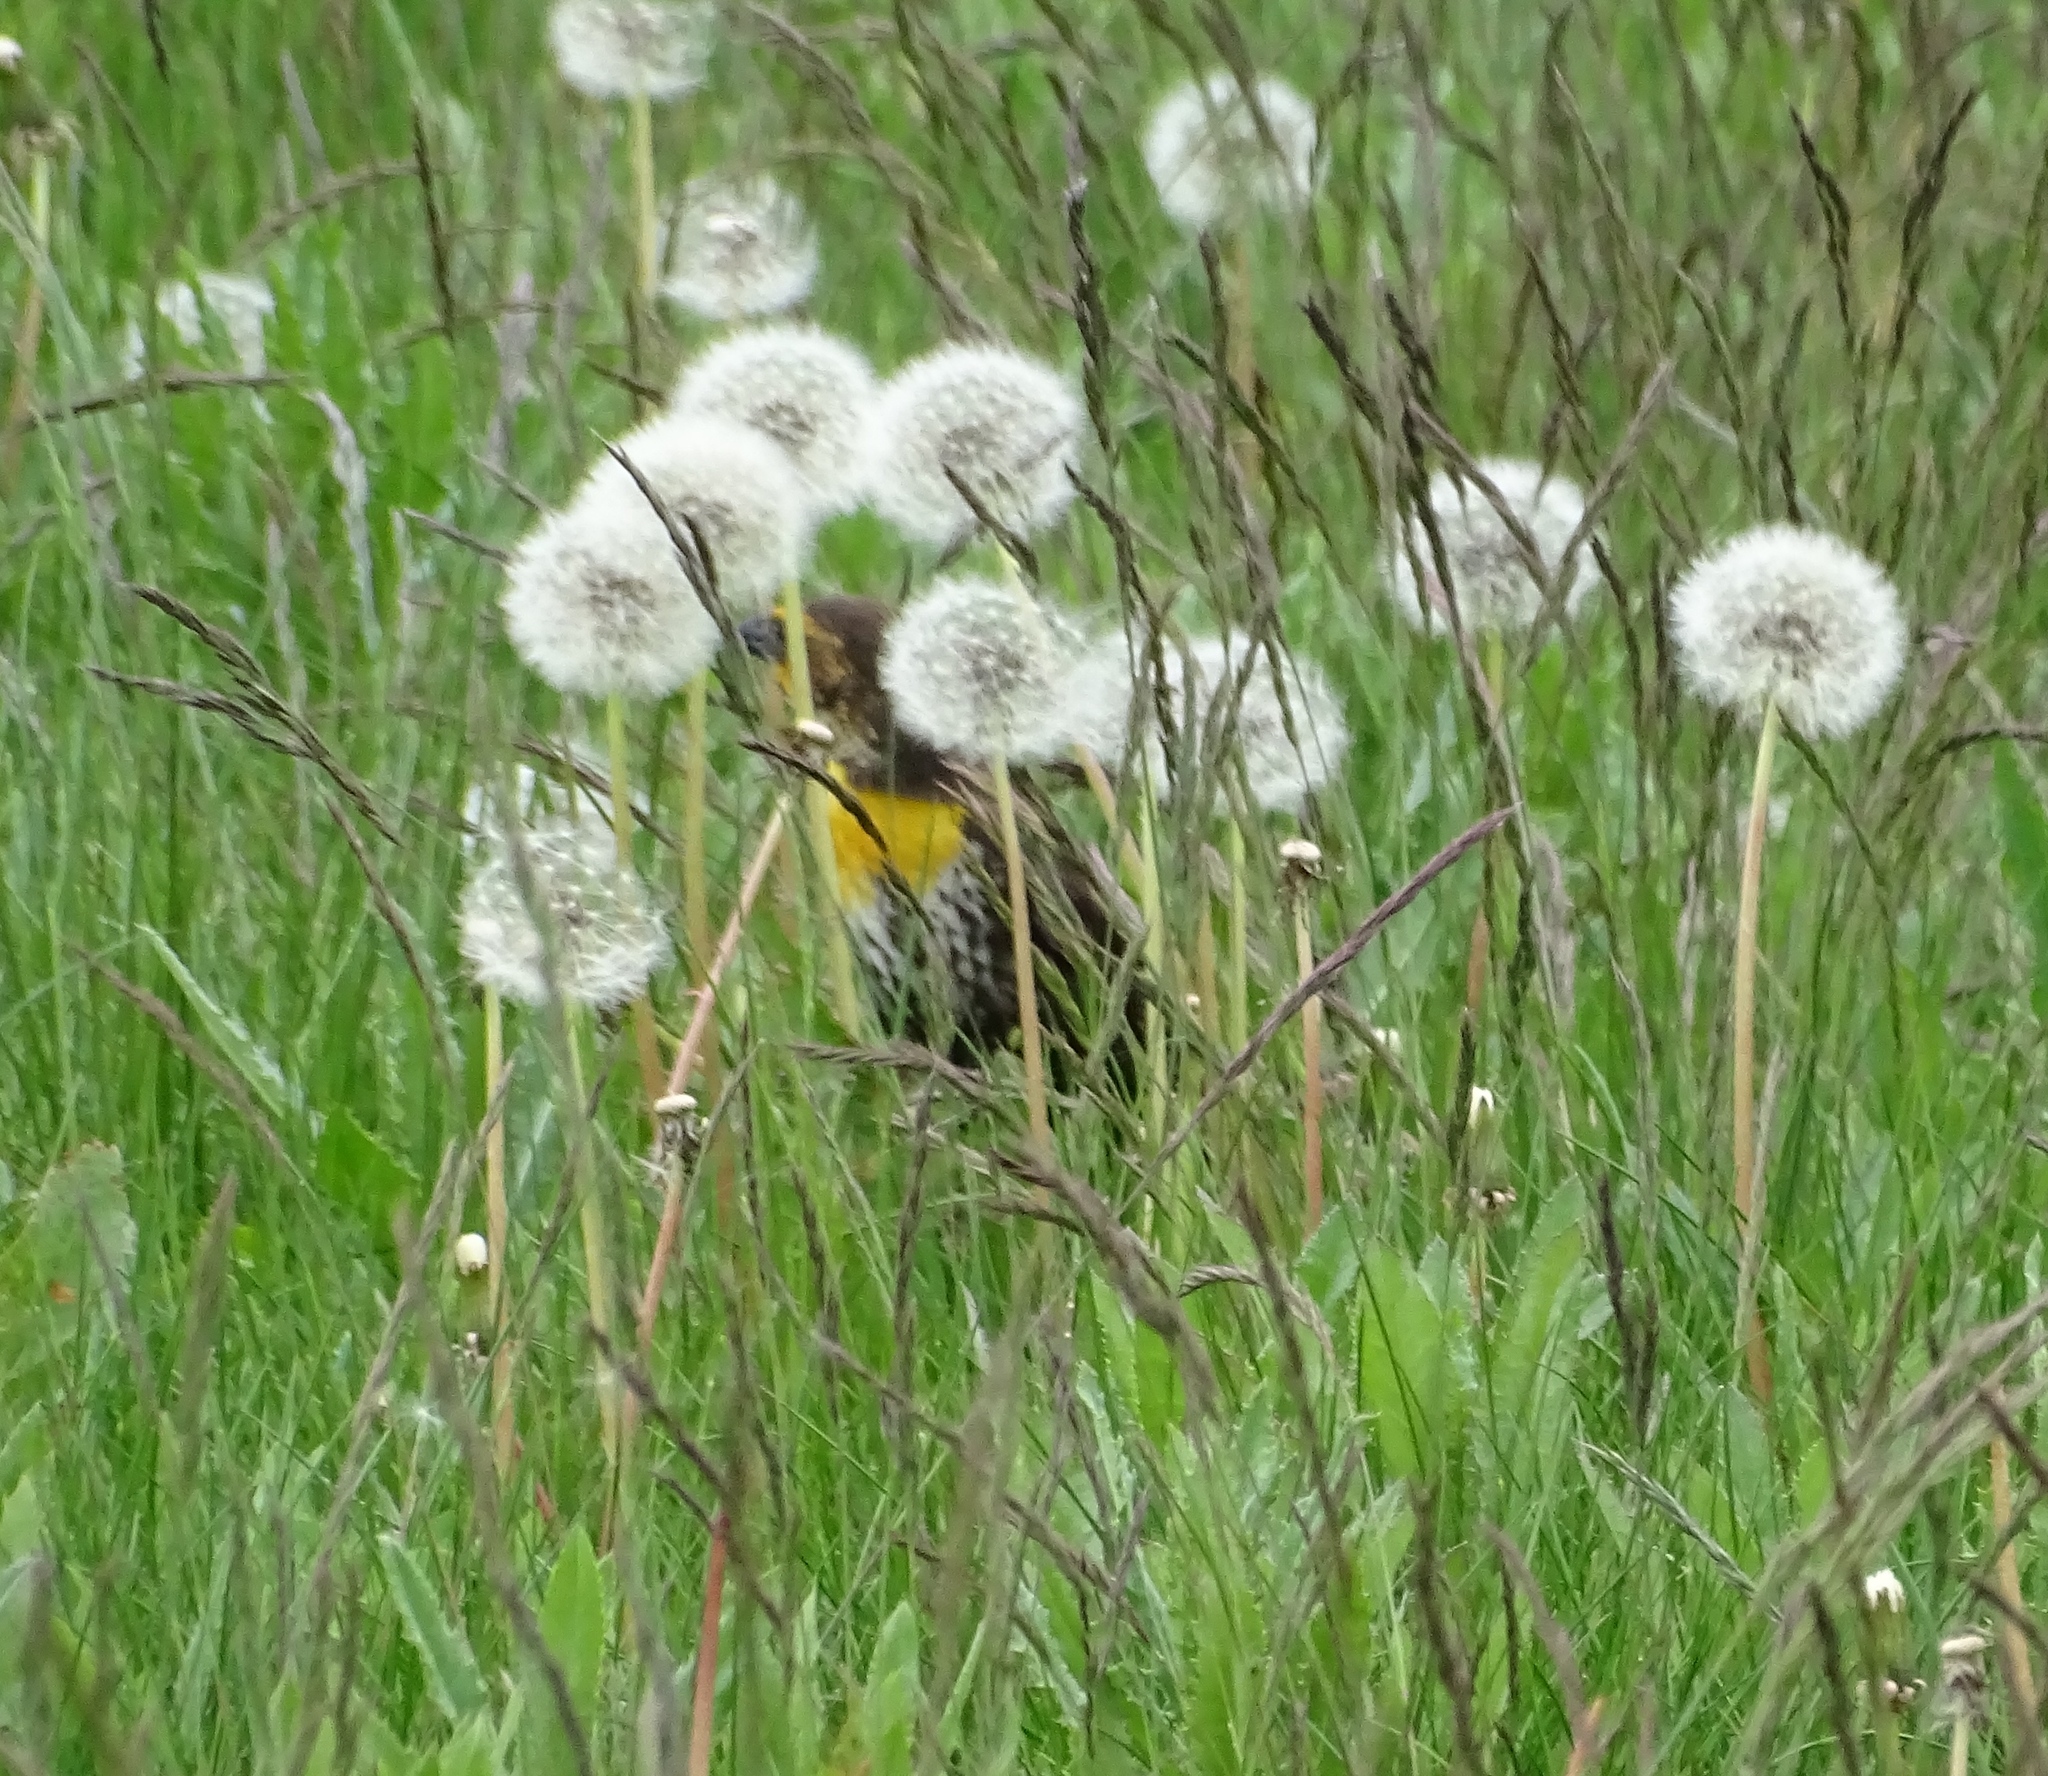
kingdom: Animalia
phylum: Chordata
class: Aves
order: Passeriformes
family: Icteridae
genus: Xanthocephalus
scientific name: Xanthocephalus xanthocephalus
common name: Yellow-headed blackbird
